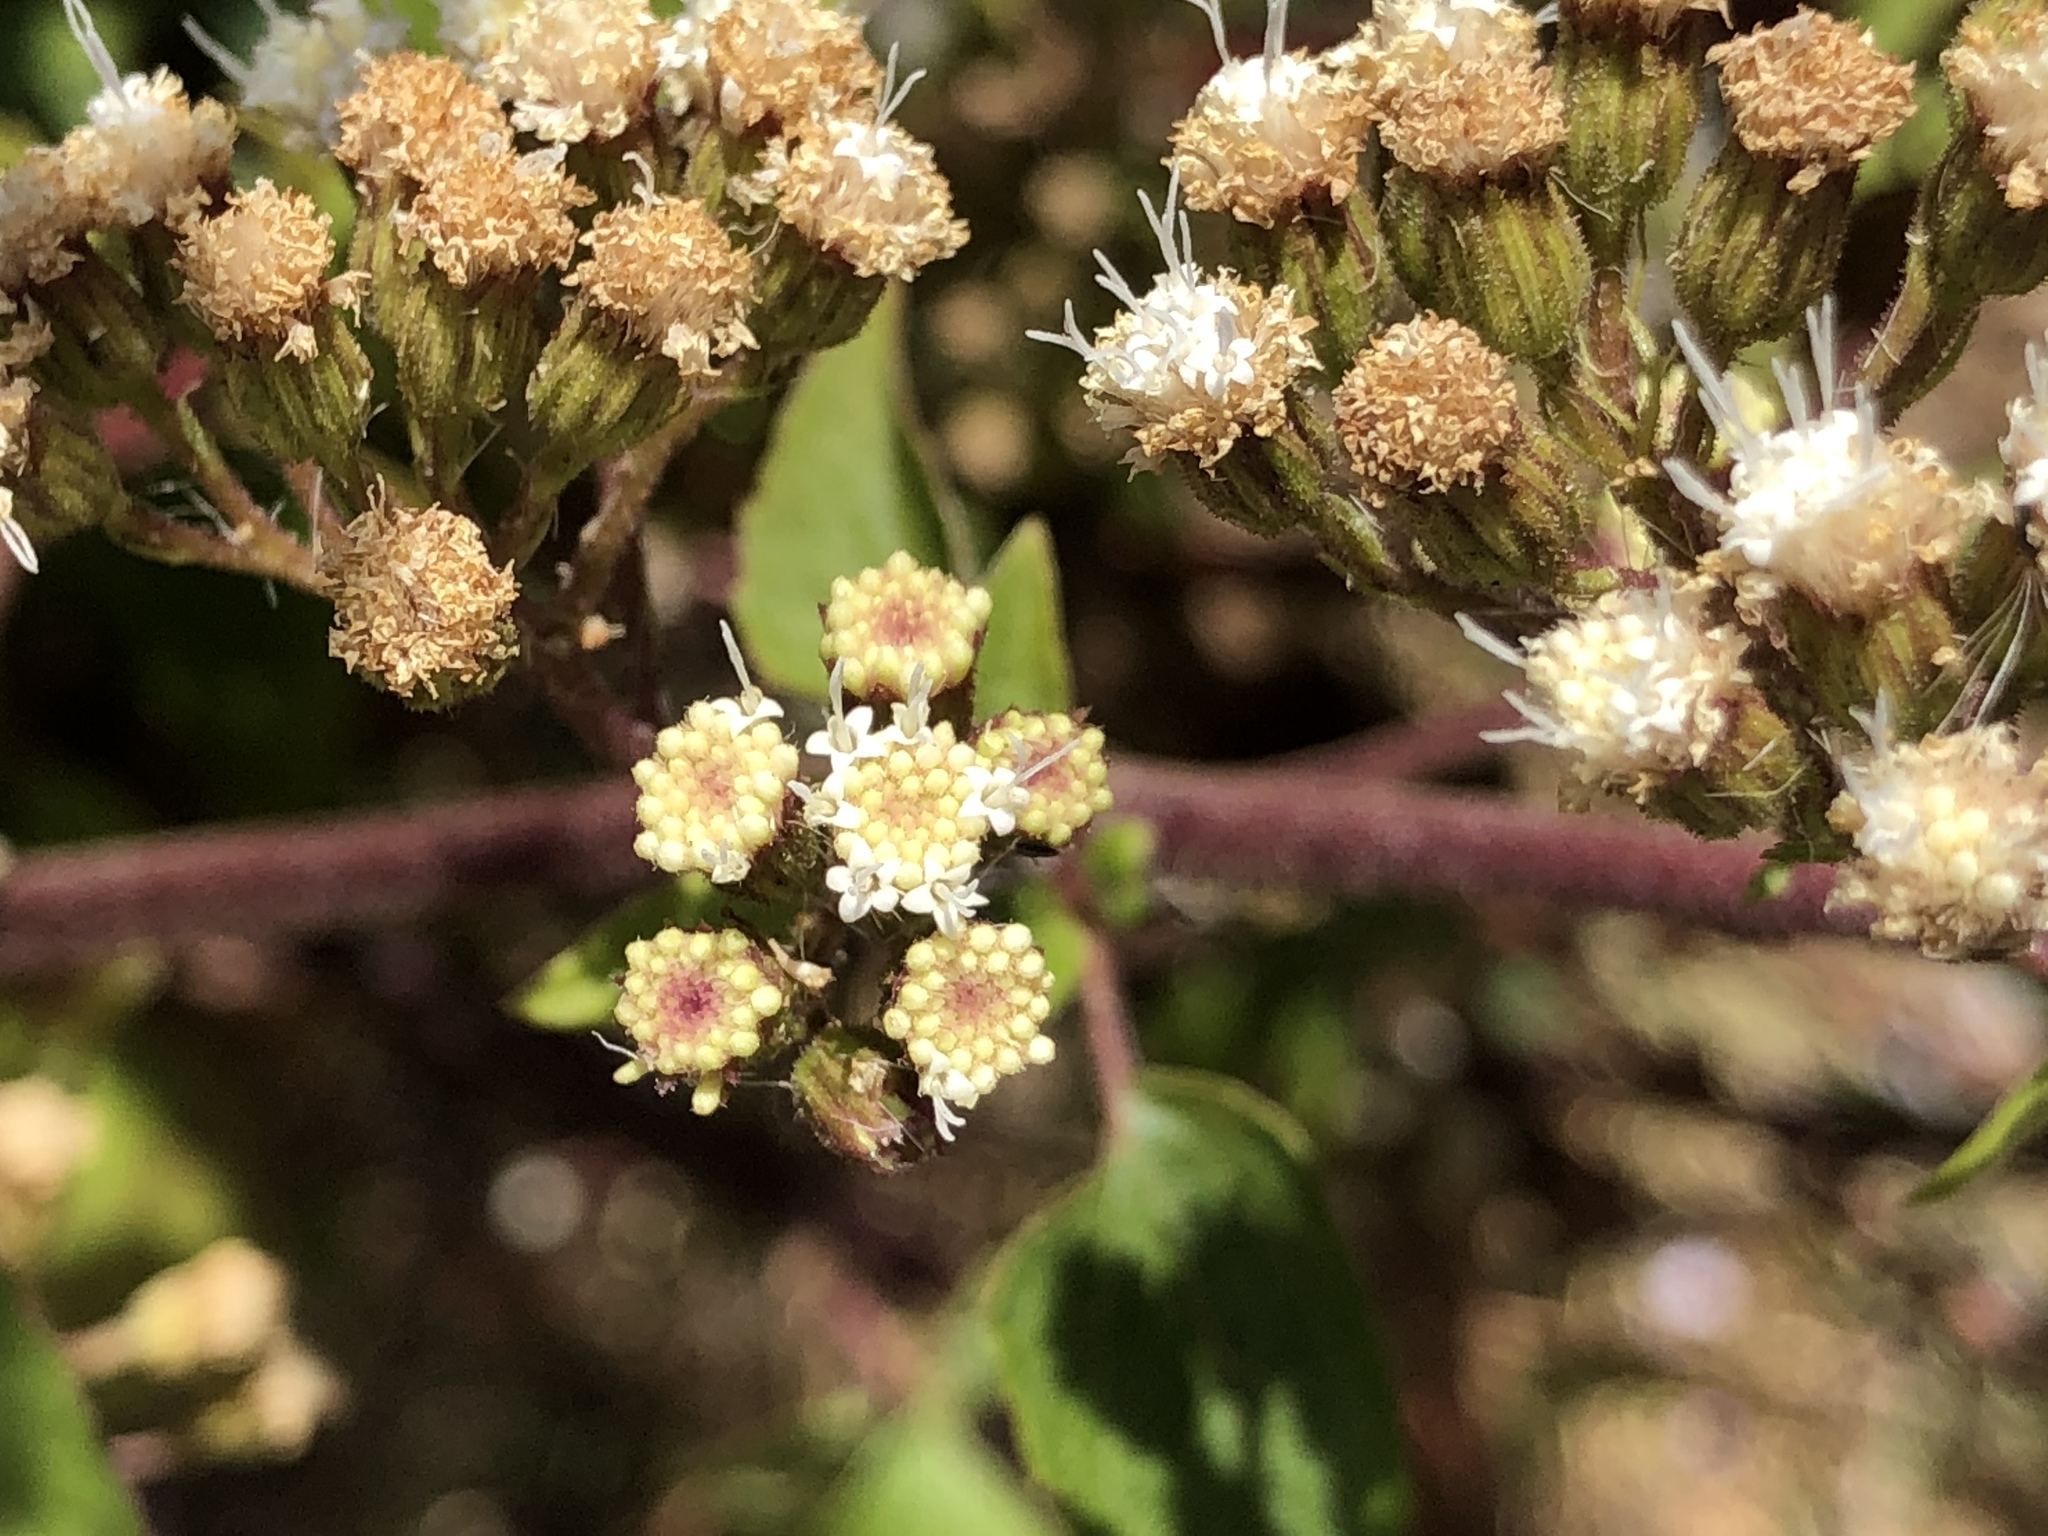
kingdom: Plantae
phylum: Tracheophyta
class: Magnoliopsida
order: Asterales
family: Asteraceae
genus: Ageratina
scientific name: Ageratina adenophora
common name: Sticky snakeroot
